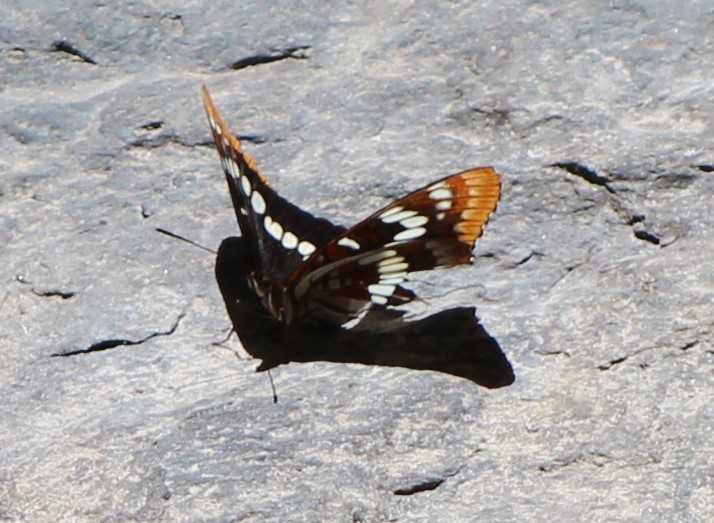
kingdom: Animalia
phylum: Arthropoda
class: Insecta
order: Lepidoptera
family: Nymphalidae
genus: Limenitis
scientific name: Limenitis lorquini
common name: Lorquin's admiral
